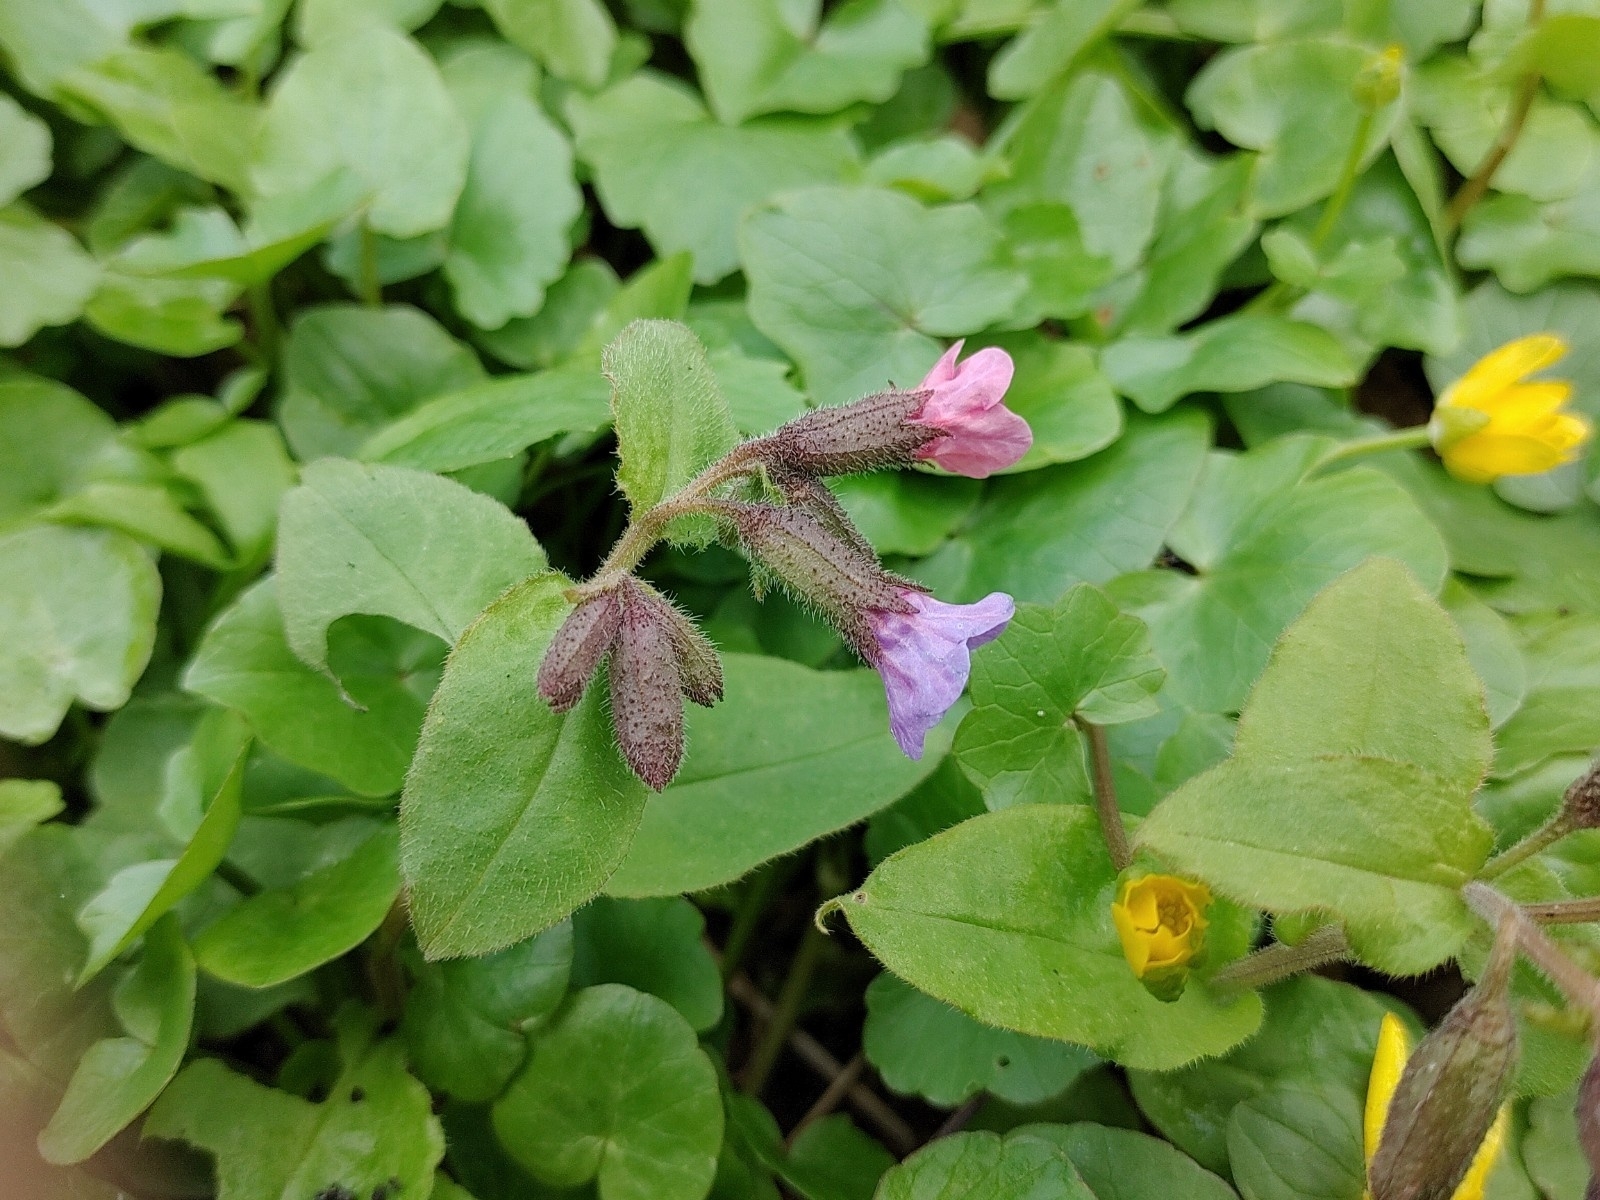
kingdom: Plantae
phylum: Tracheophyta
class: Magnoliopsida
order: Boraginales
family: Boraginaceae
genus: Pulmonaria
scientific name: Pulmonaria obscura
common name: Suffolk lungwort
